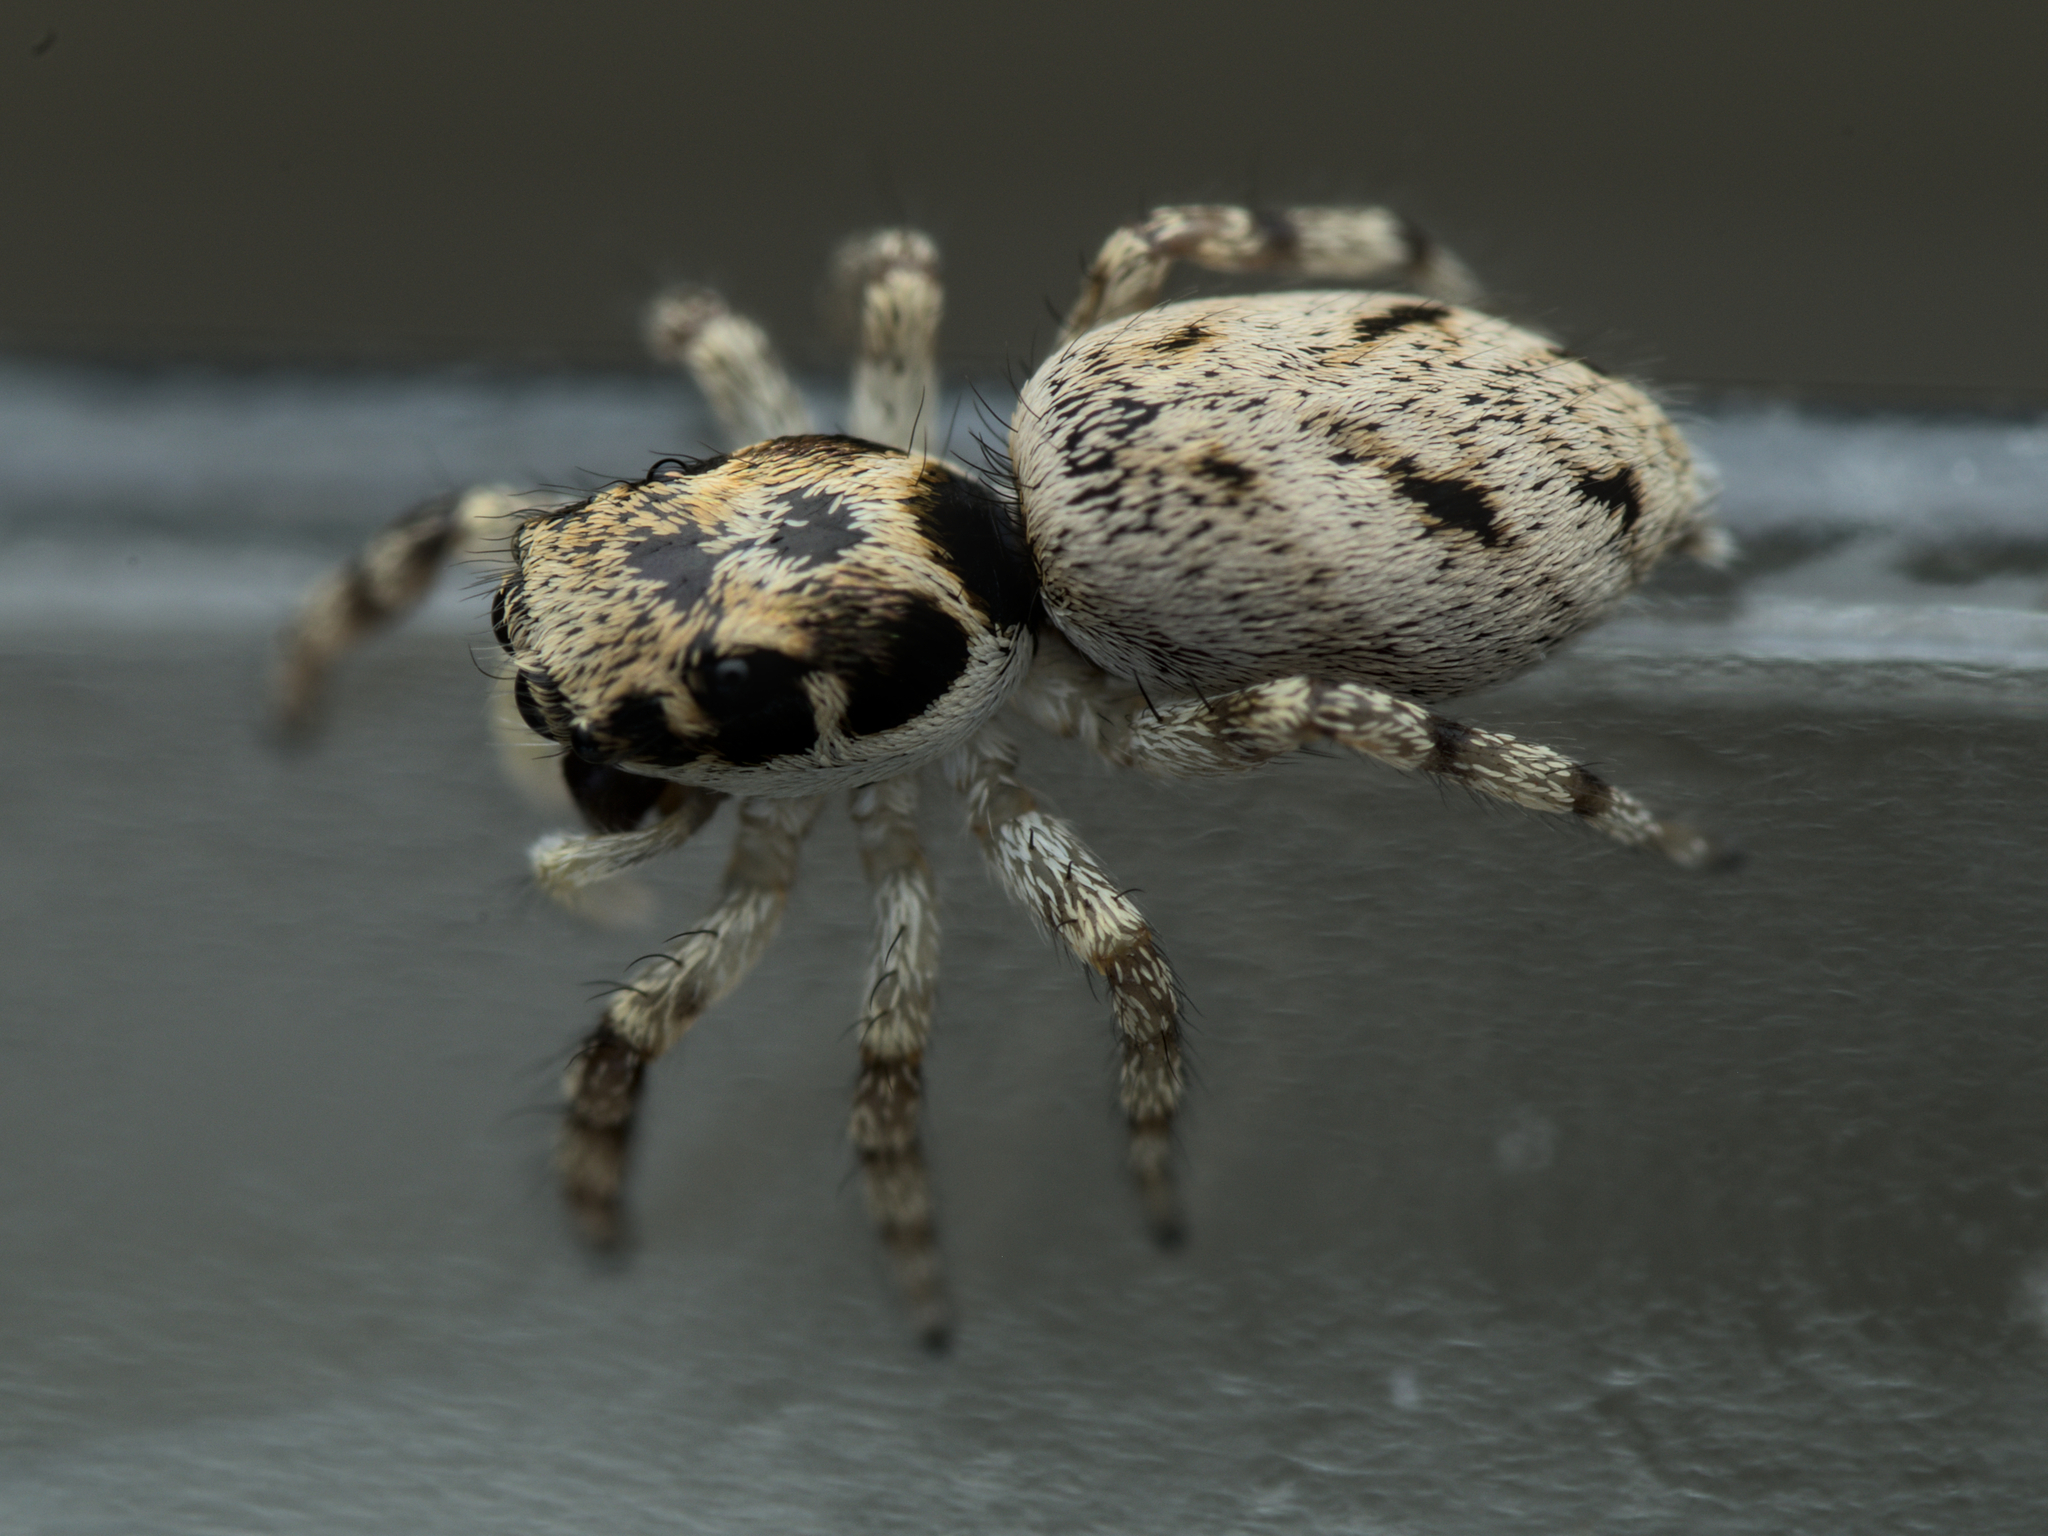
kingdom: Animalia
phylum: Arthropoda
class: Arachnida
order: Araneae
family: Salticidae
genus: Salticus
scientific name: Salticus mutabilis
